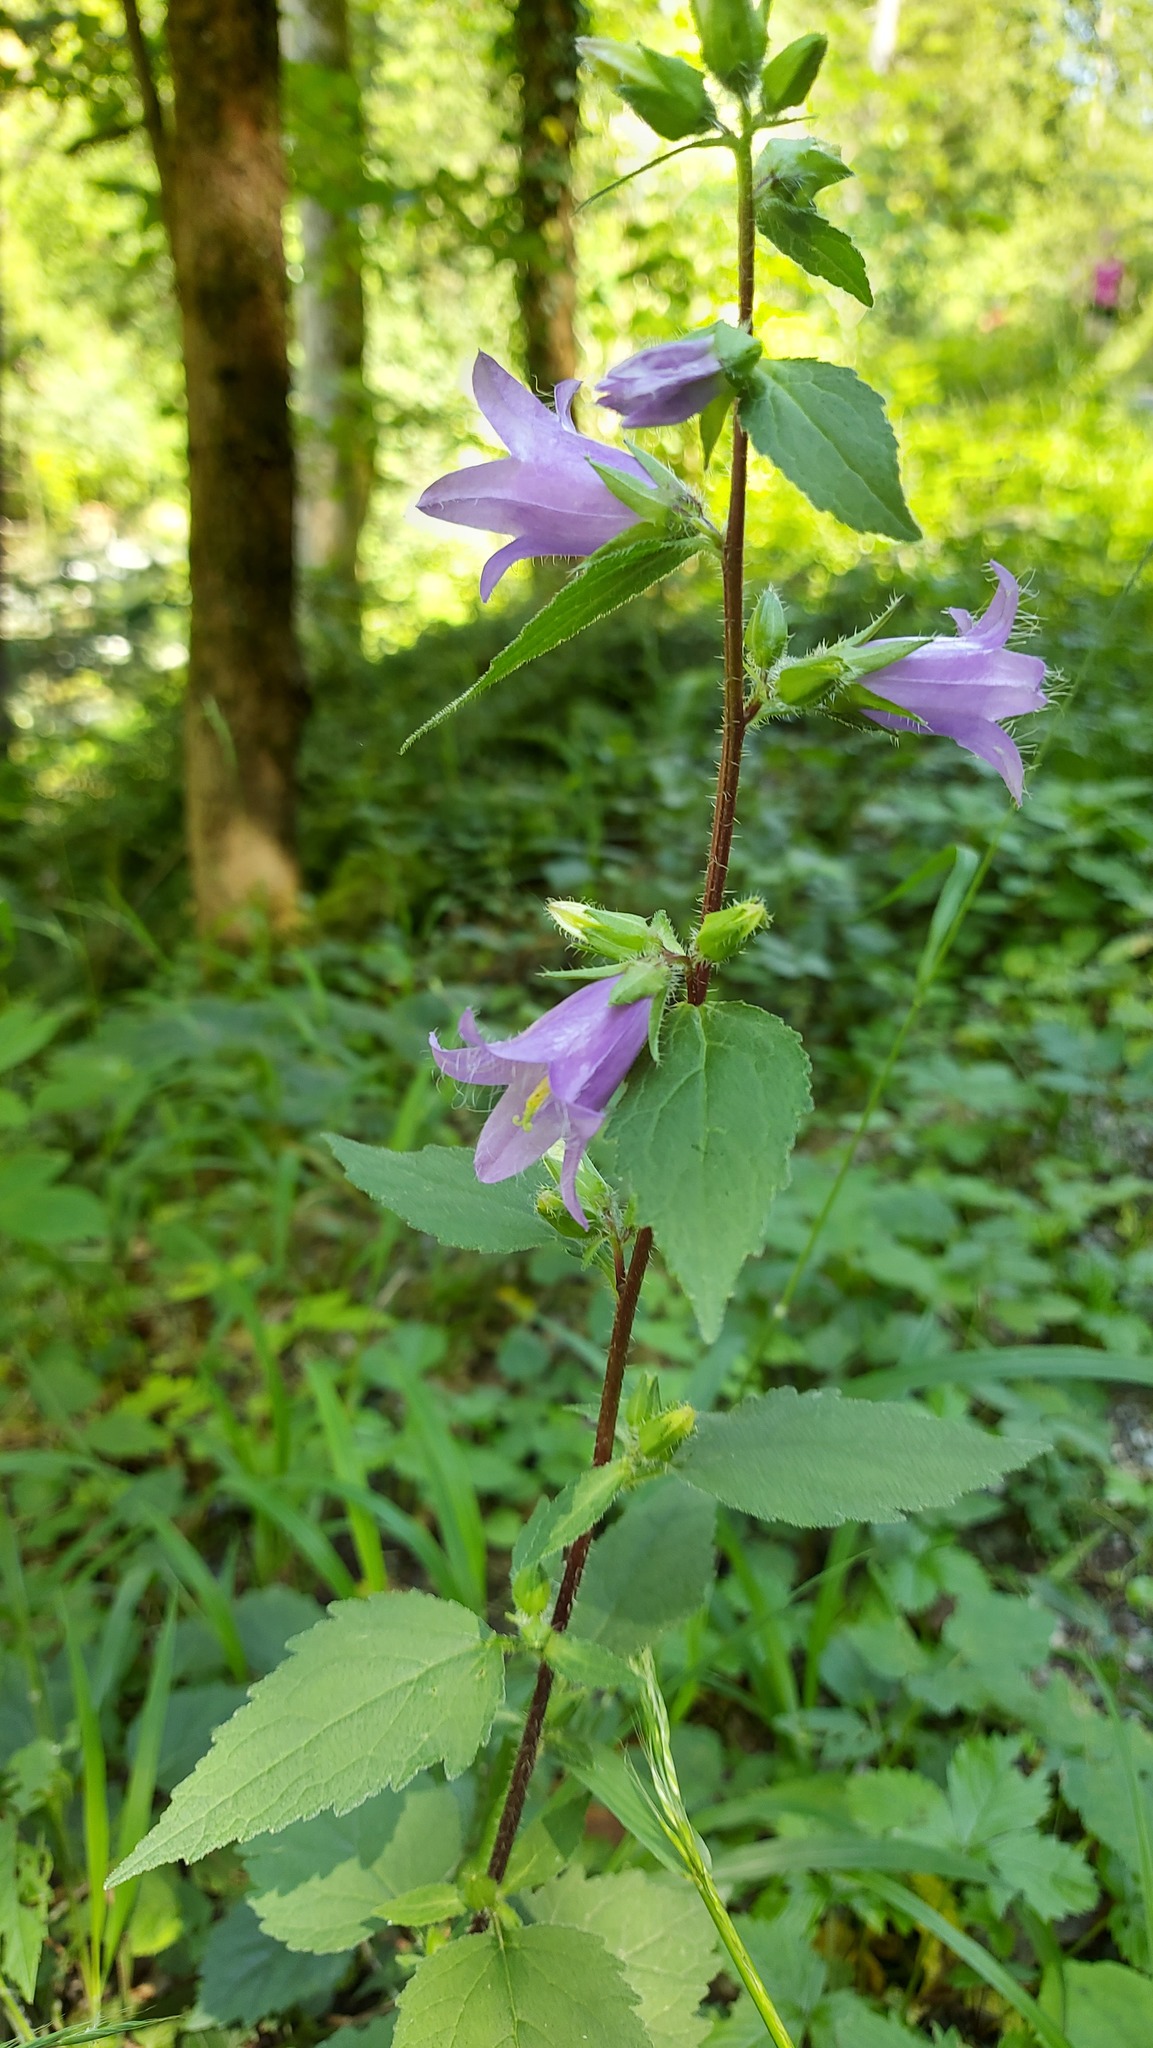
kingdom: Plantae
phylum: Tracheophyta
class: Magnoliopsida
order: Asterales
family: Campanulaceae
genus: Campanula
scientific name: Campanula trachelium
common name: Nettle-leaved bellflower
